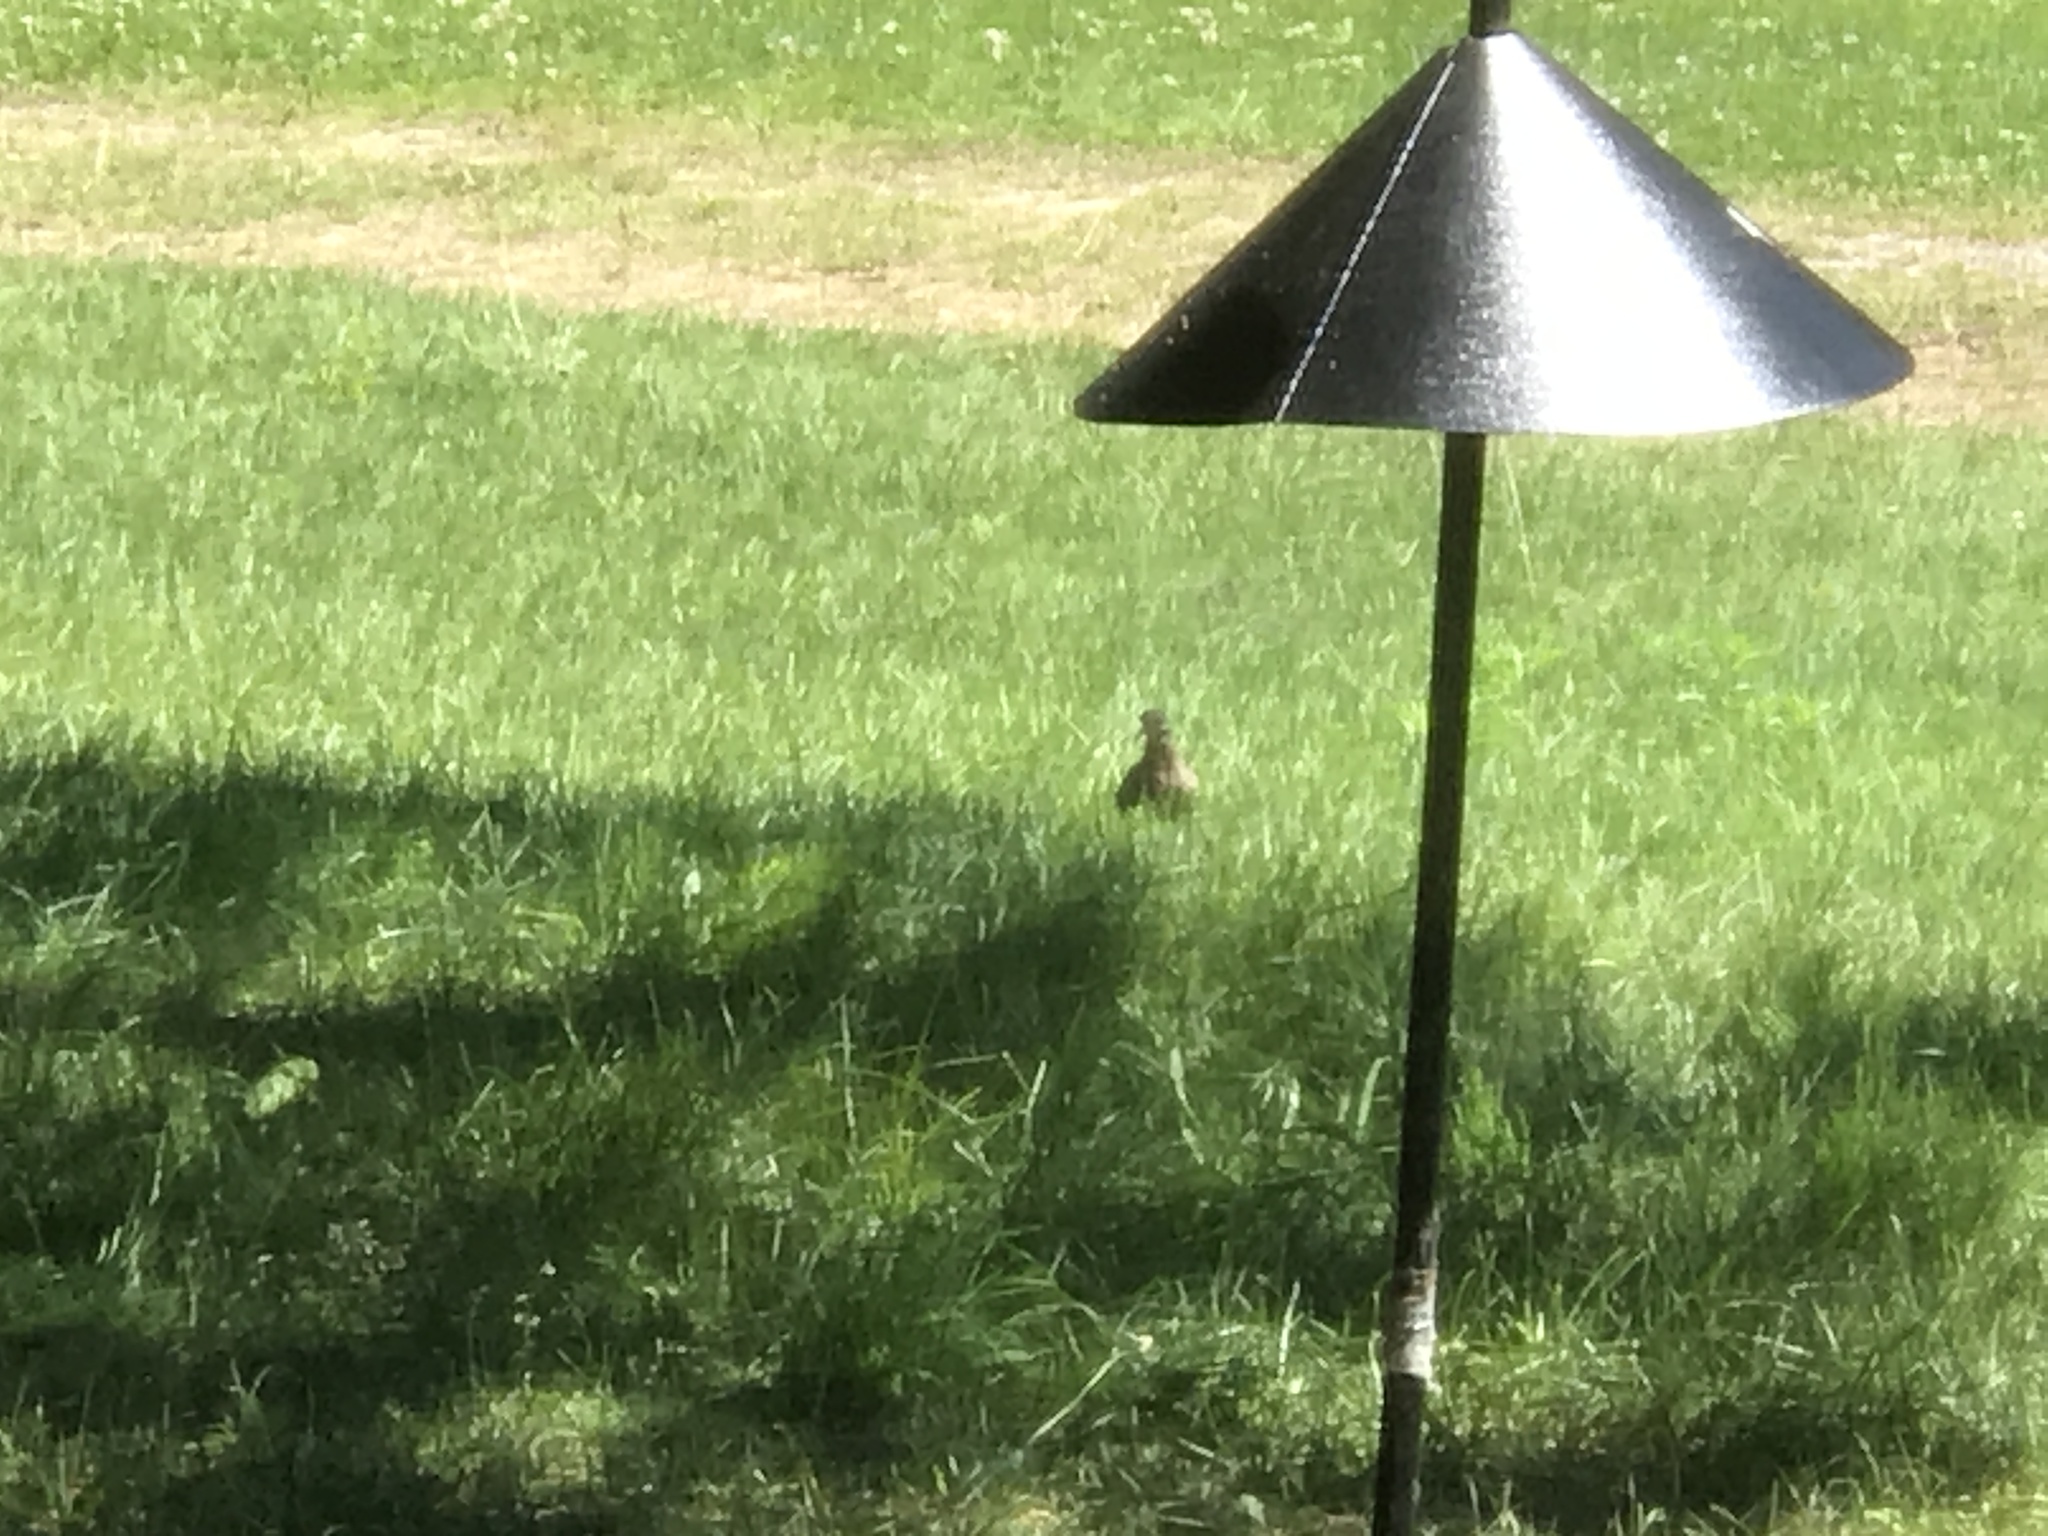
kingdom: Animalia
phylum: Chordata
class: Aves
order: Columbiformes
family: Columbidae
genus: Zenaida
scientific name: Zenaida macroura
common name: Mourning dove
